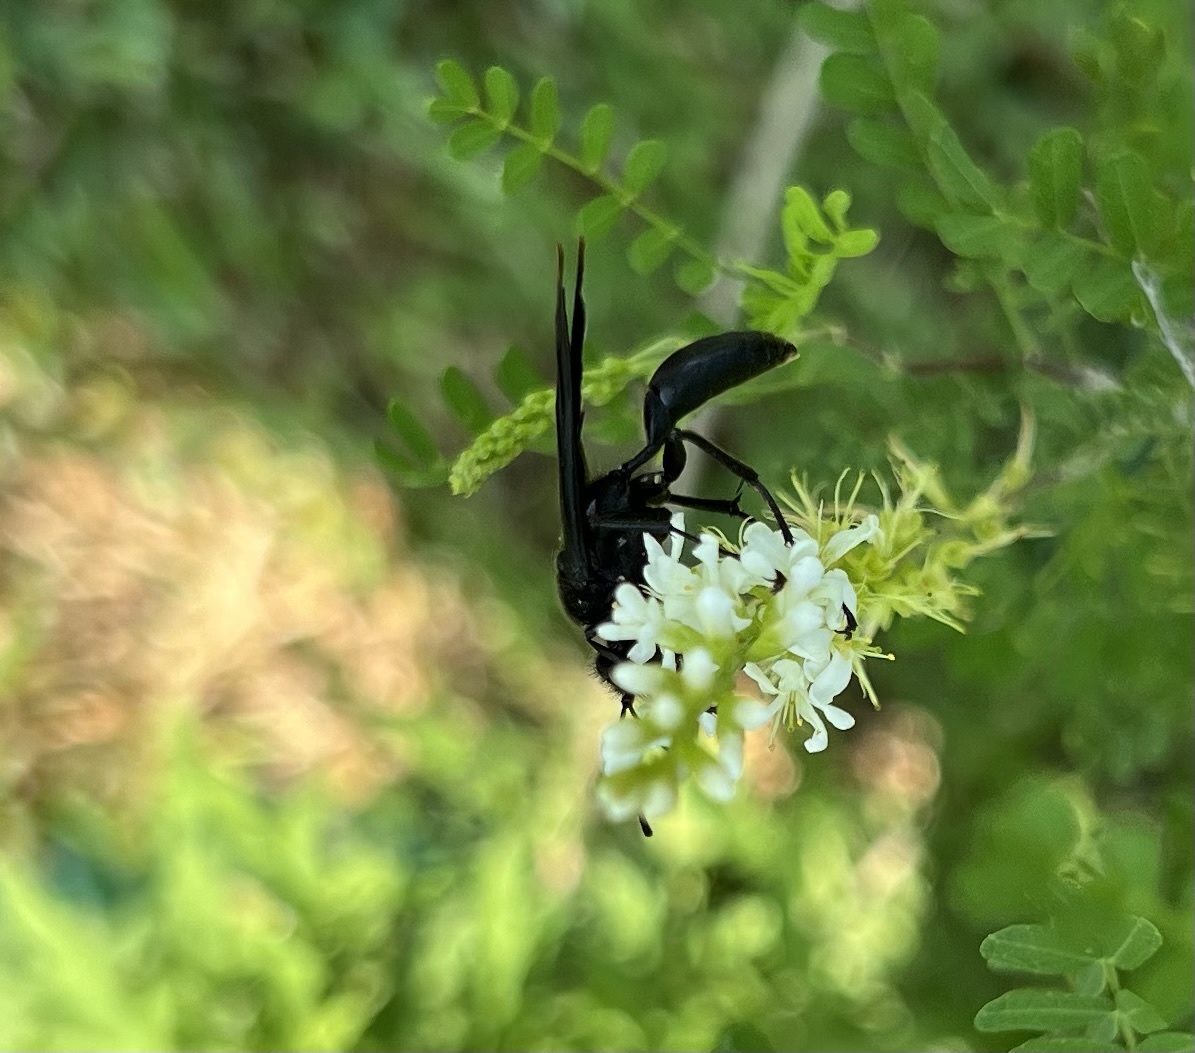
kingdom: Animalia
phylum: Arthropoda
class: Insecta
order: Hymenoptera
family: Sphecidae
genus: Sphex
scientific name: Sphex pensylvanicus
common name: Great black digger wasp
